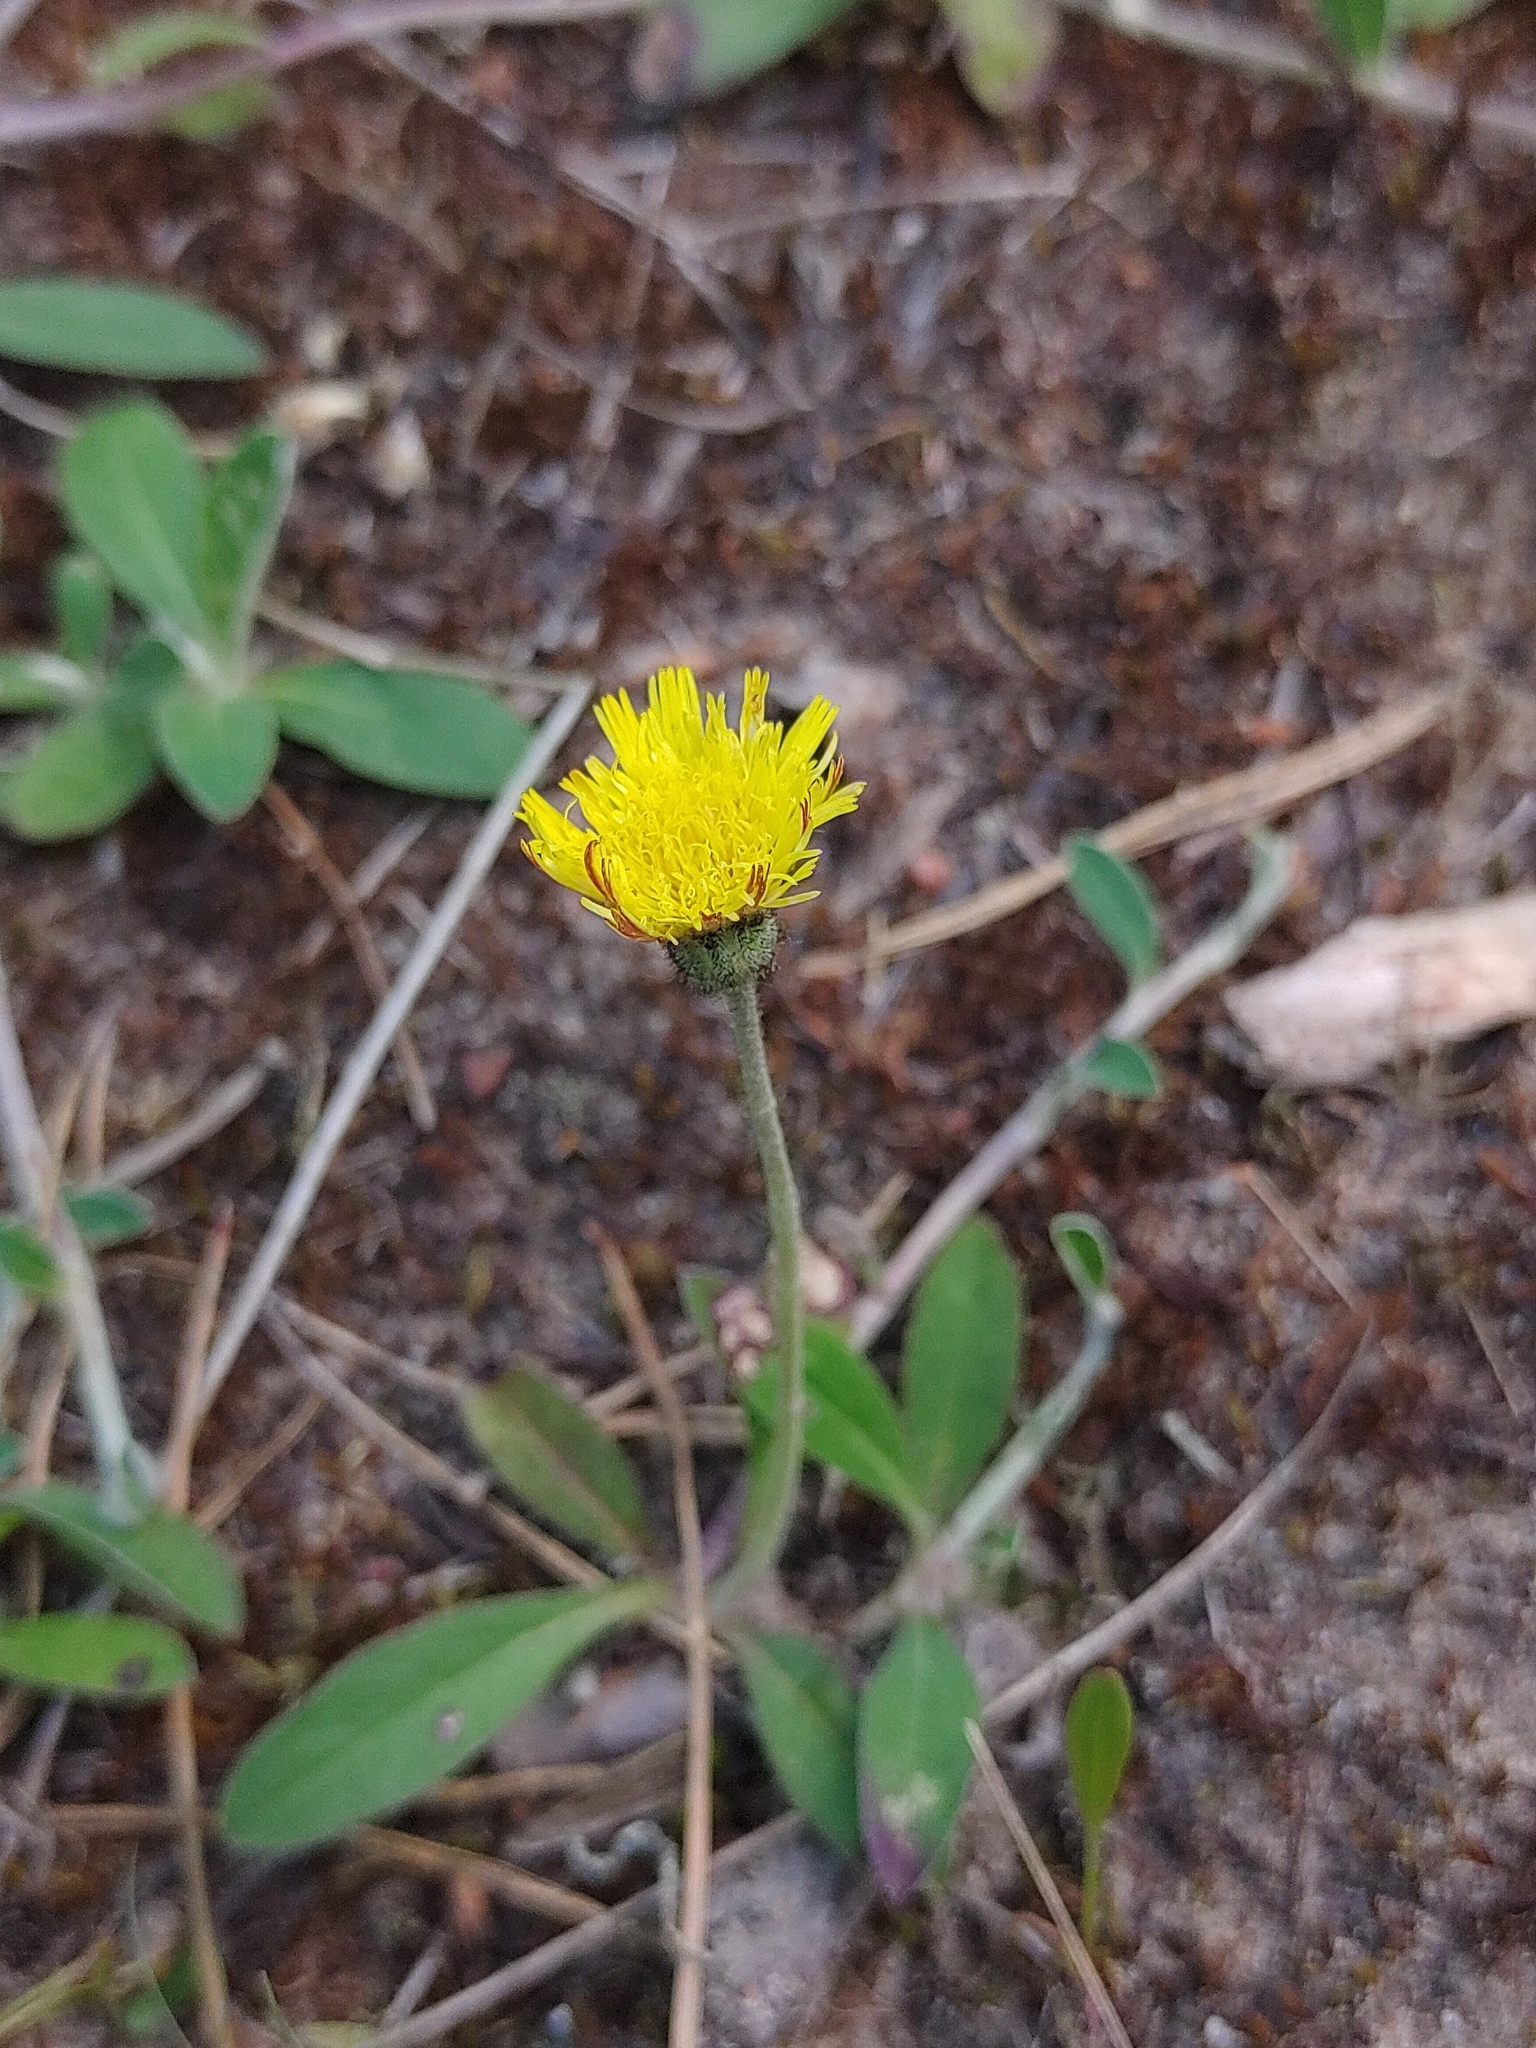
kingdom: Plantae
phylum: Tracheophyta
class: Magnoliopsida
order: Asterales
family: Asteraceae
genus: Pilosella
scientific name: Pilosella officinarum
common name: Mouse-ear hawkweed
